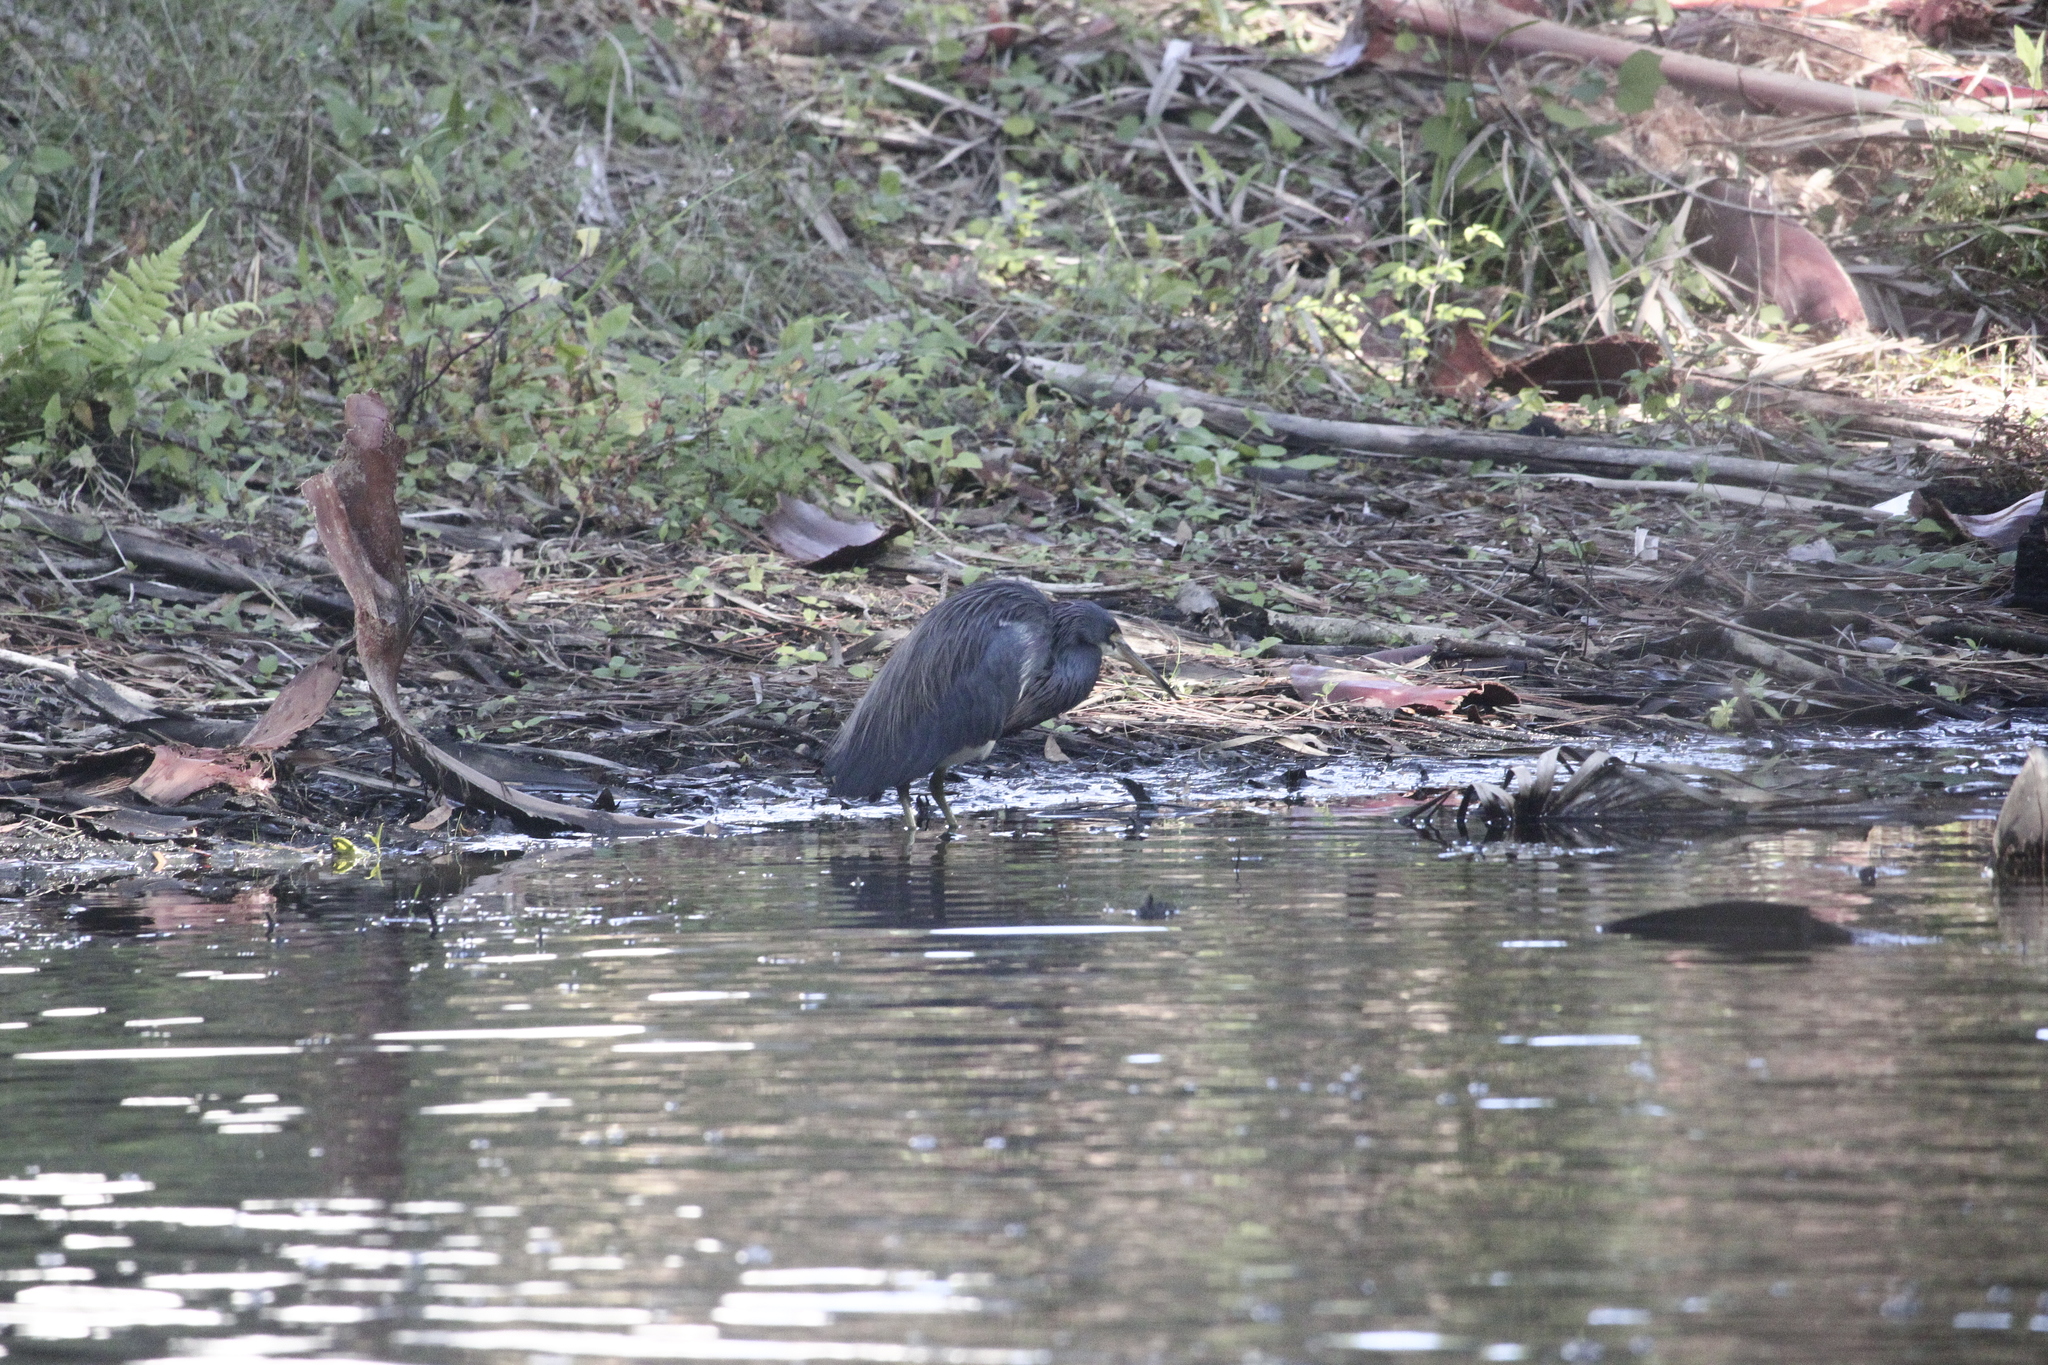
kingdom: Animalia
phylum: Chordata
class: Aves
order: Pelecaniformes
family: Ardeidae
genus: Egretta
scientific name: Egretta tricolor
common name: Tricolored heron
